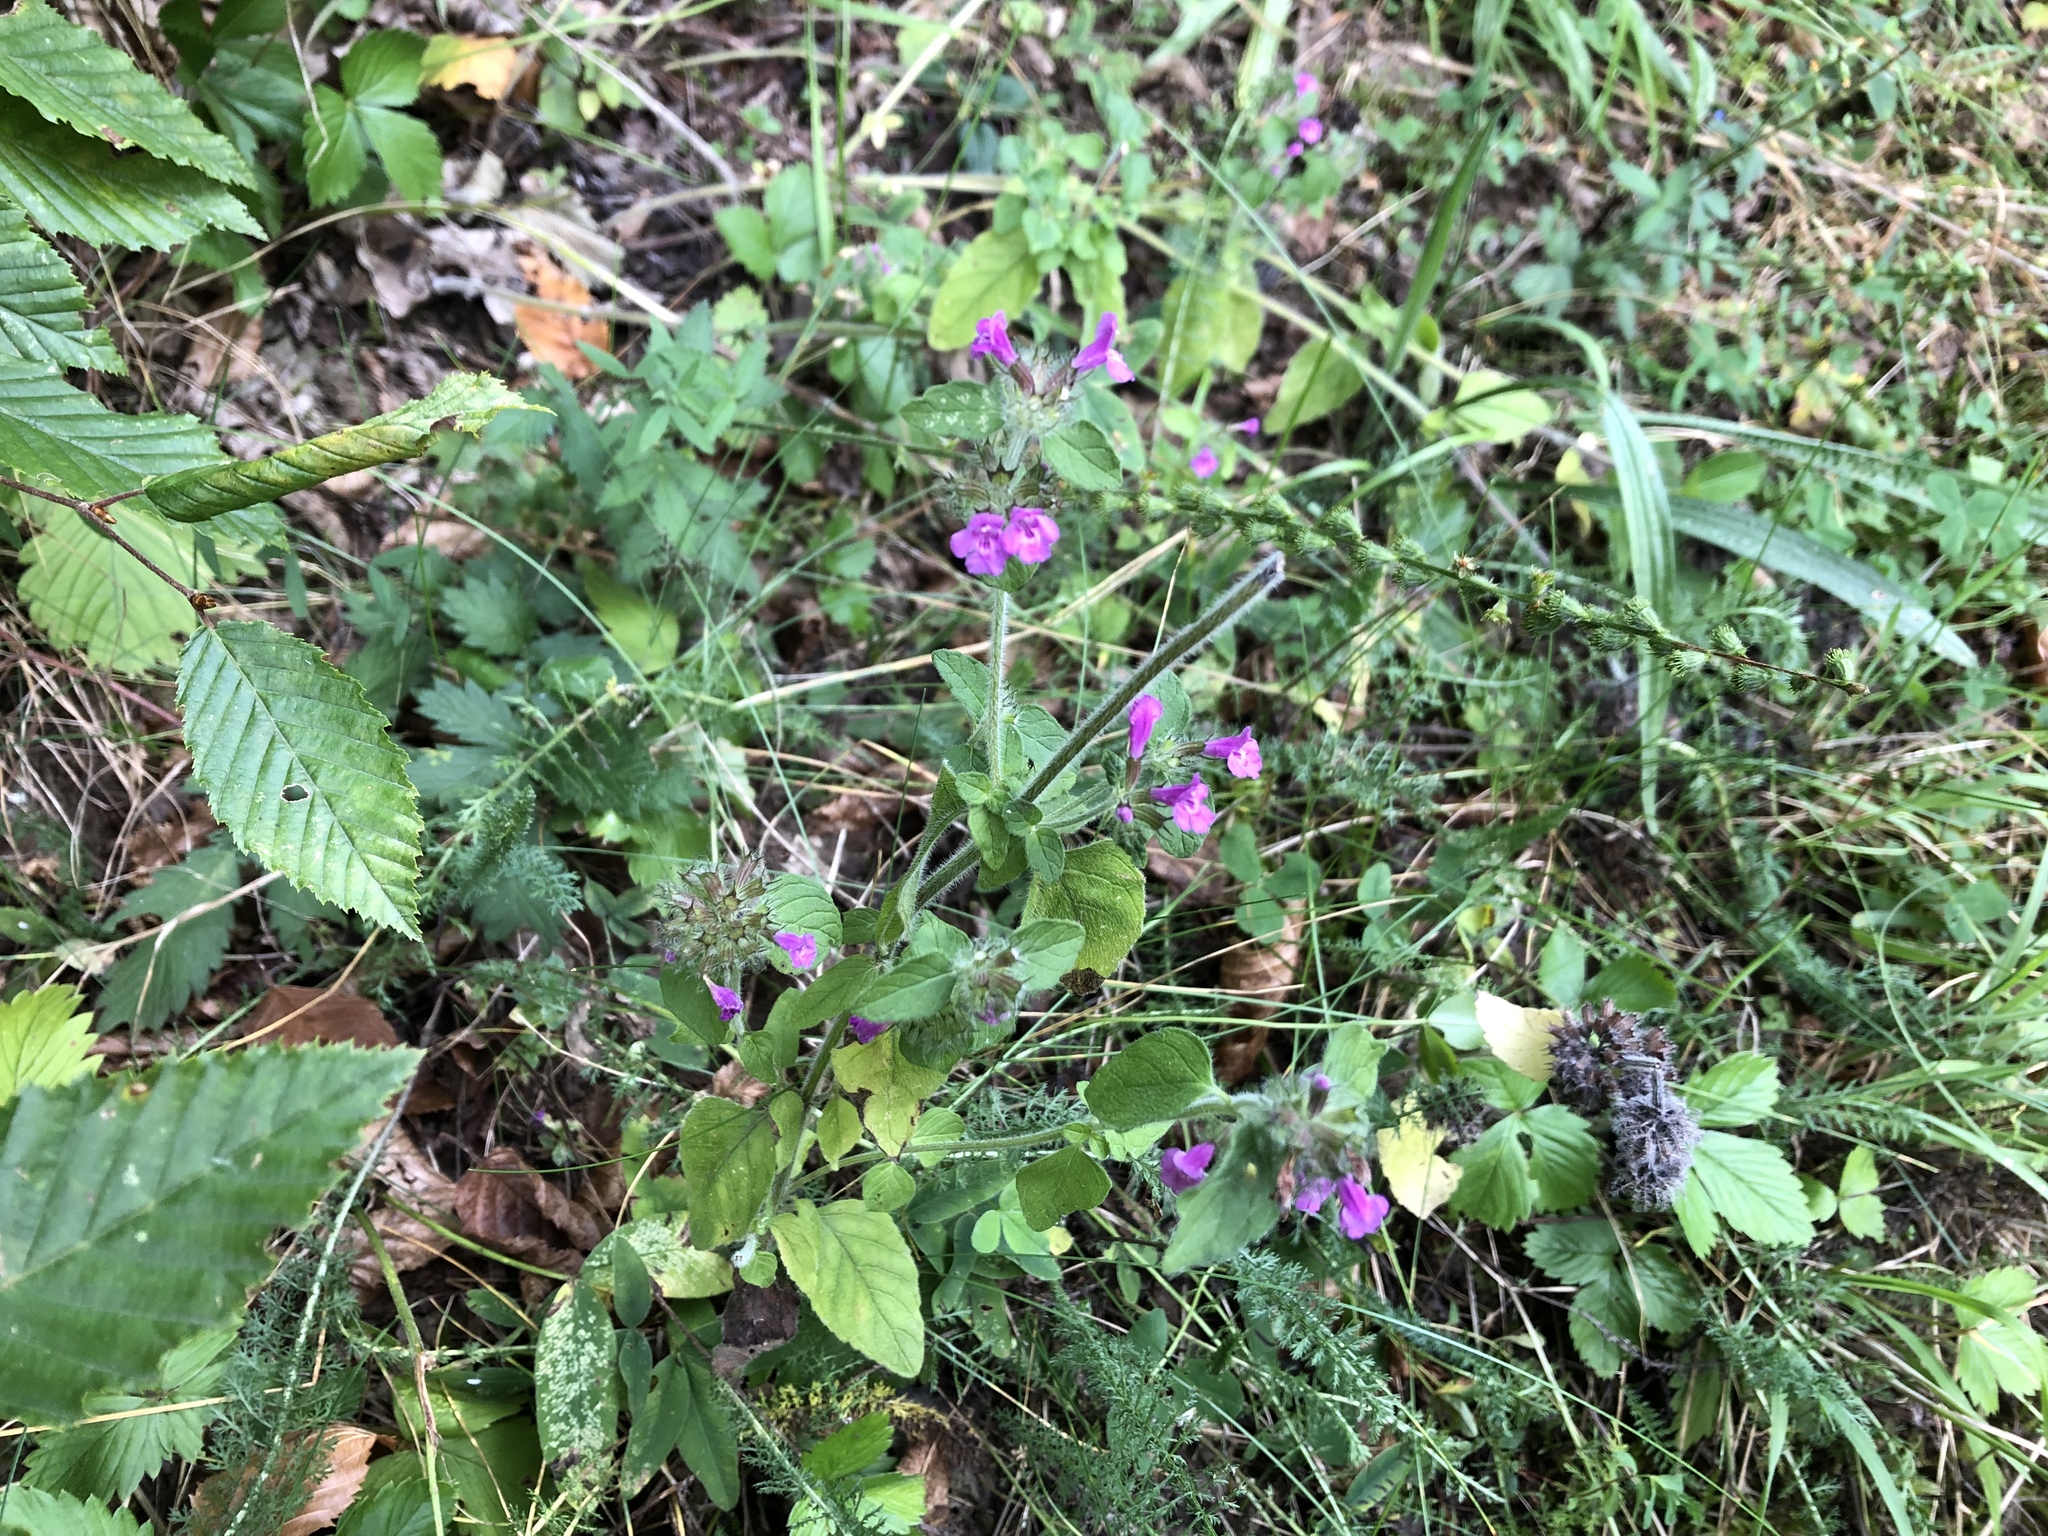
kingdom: Plantae
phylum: Tracheophyta
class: Magnoliopsida
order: Lamiales
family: Lamiaceae
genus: Clinopodium
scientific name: Clinopodium vulgare
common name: Wild basil
